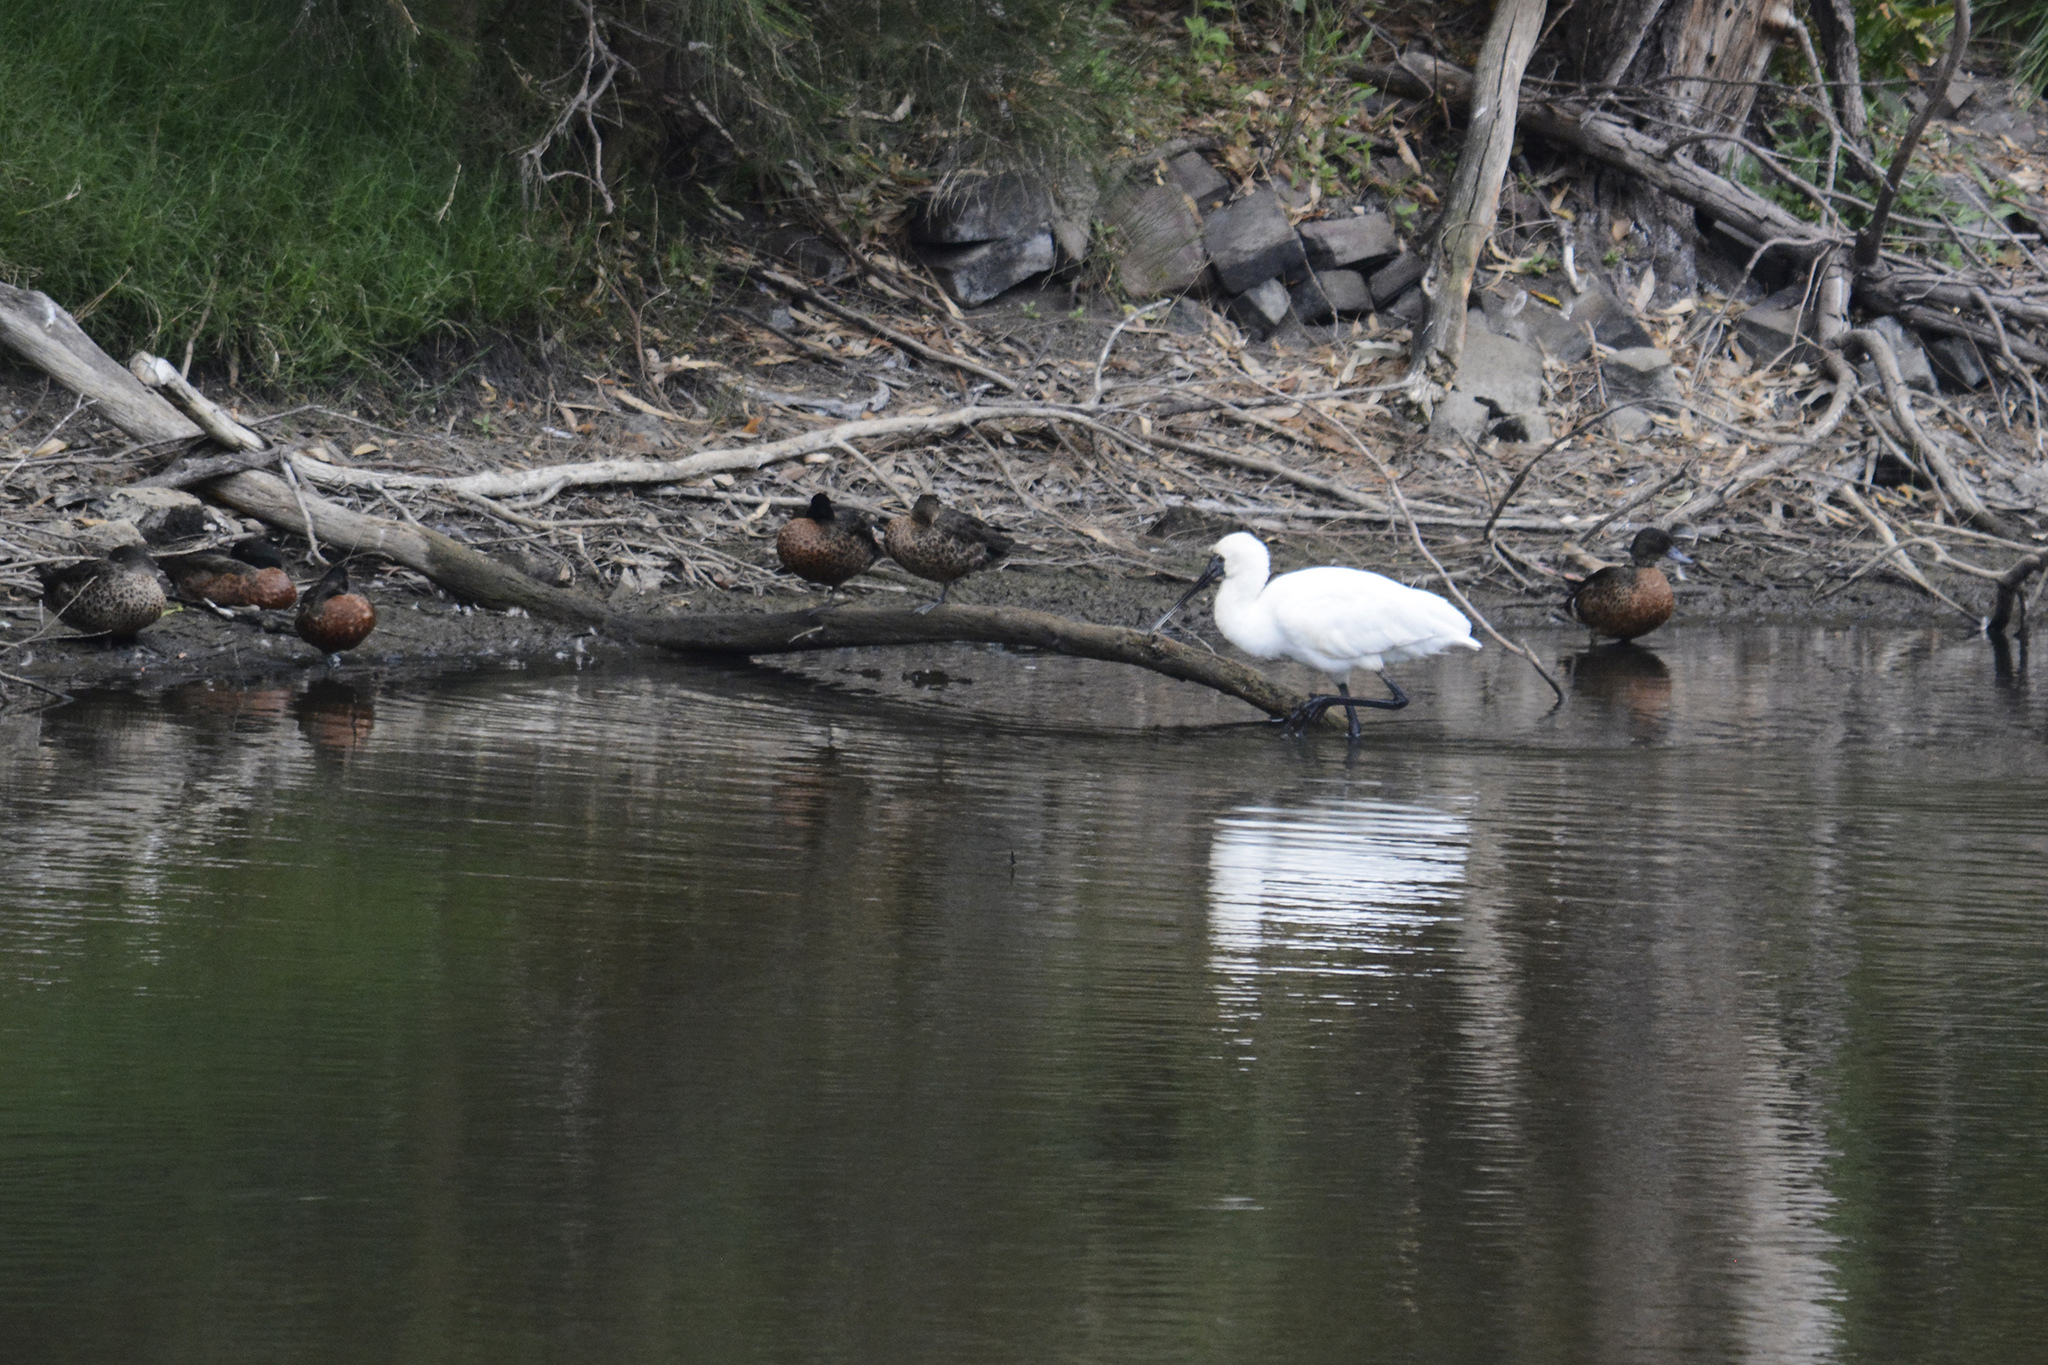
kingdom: Animalia
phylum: Chordata
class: Aves
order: Pelecaniformes
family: Threskiornithidae
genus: Platalea
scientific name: Platalea regia
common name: Royal spoonbill
